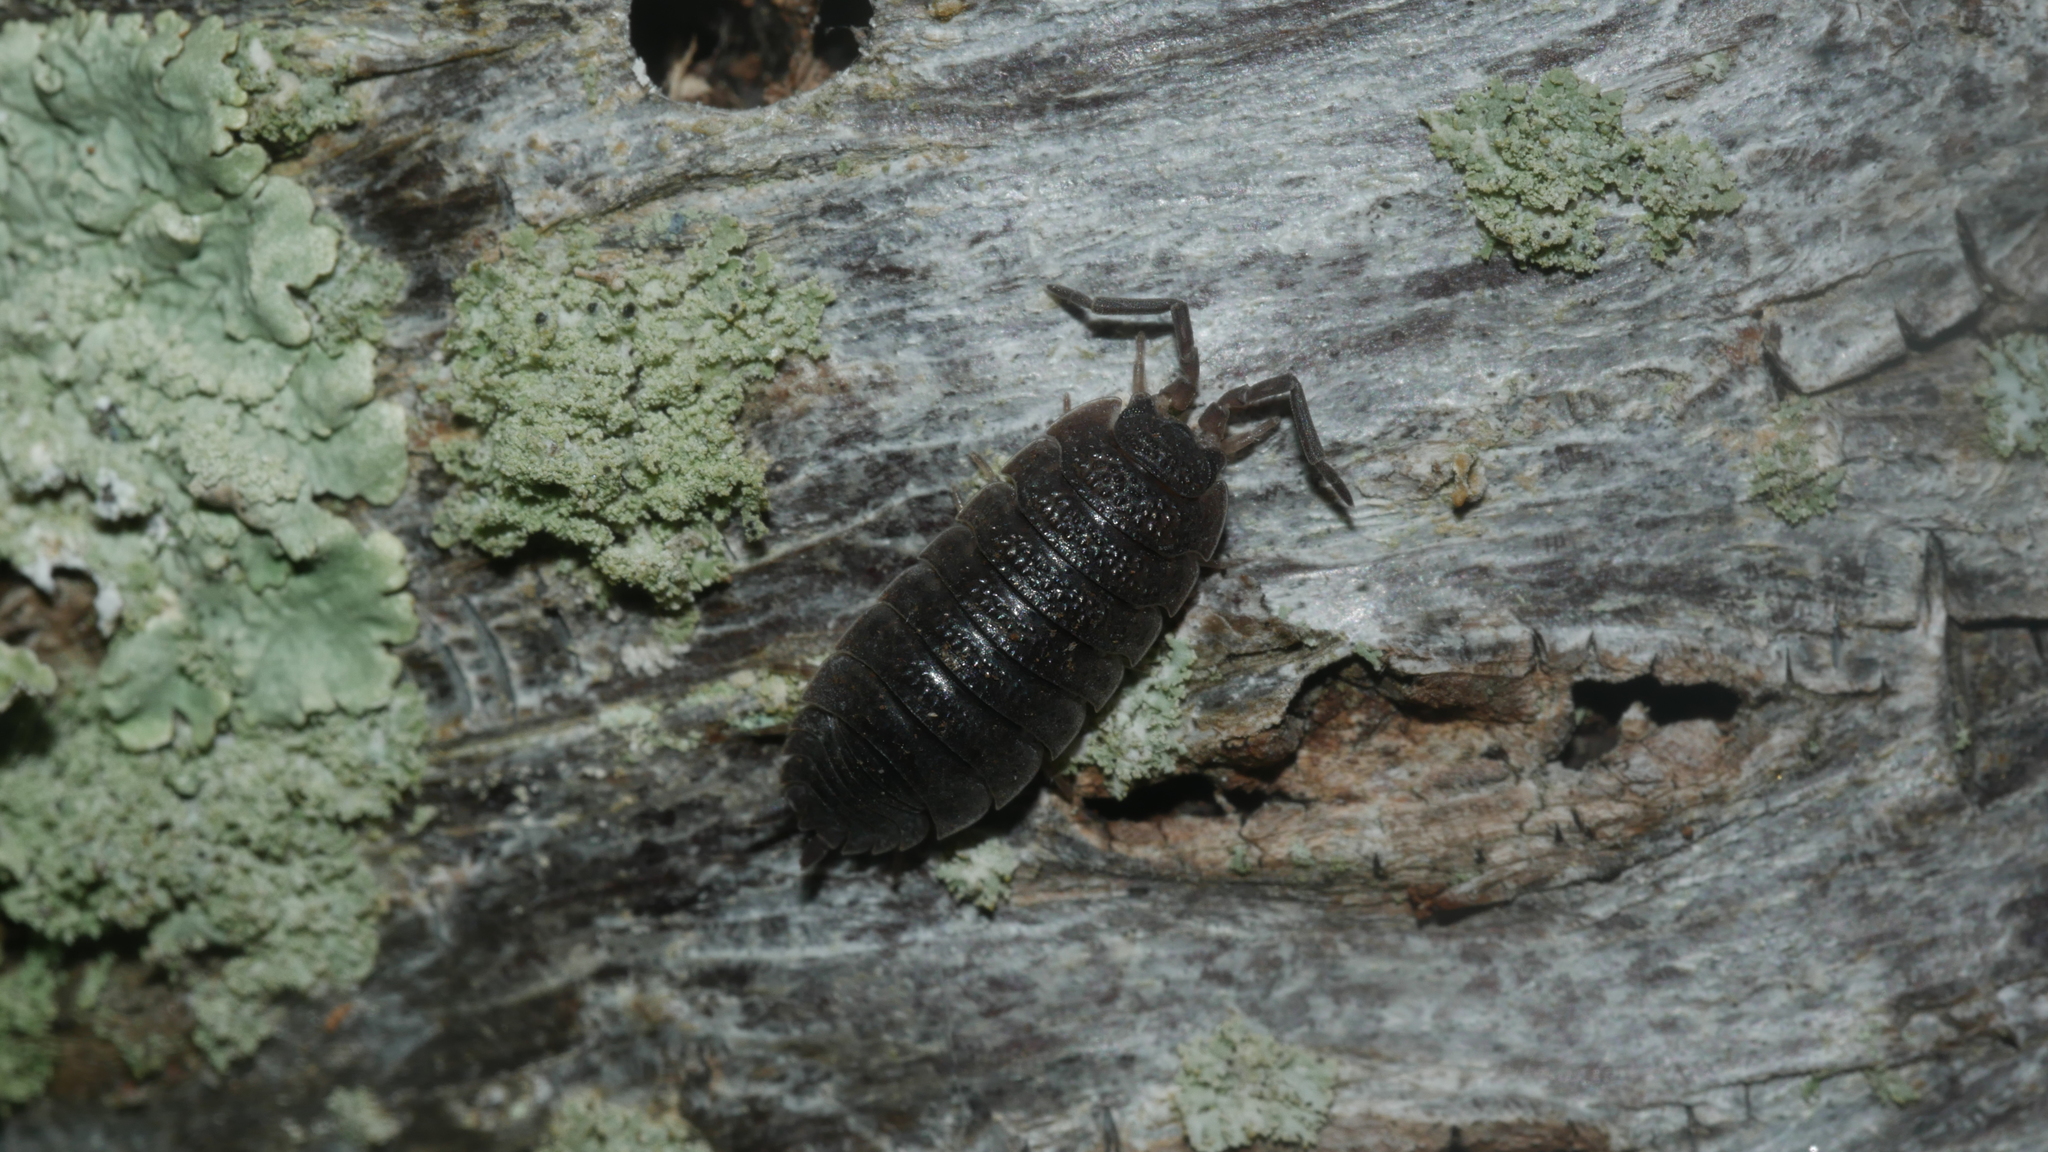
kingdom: Animalia
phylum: Arthropoda
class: Malacostraca
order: Isopoda
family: Porcellionidae
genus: Porcellio
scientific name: Porcellio scaber
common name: Common rough woodlouse
